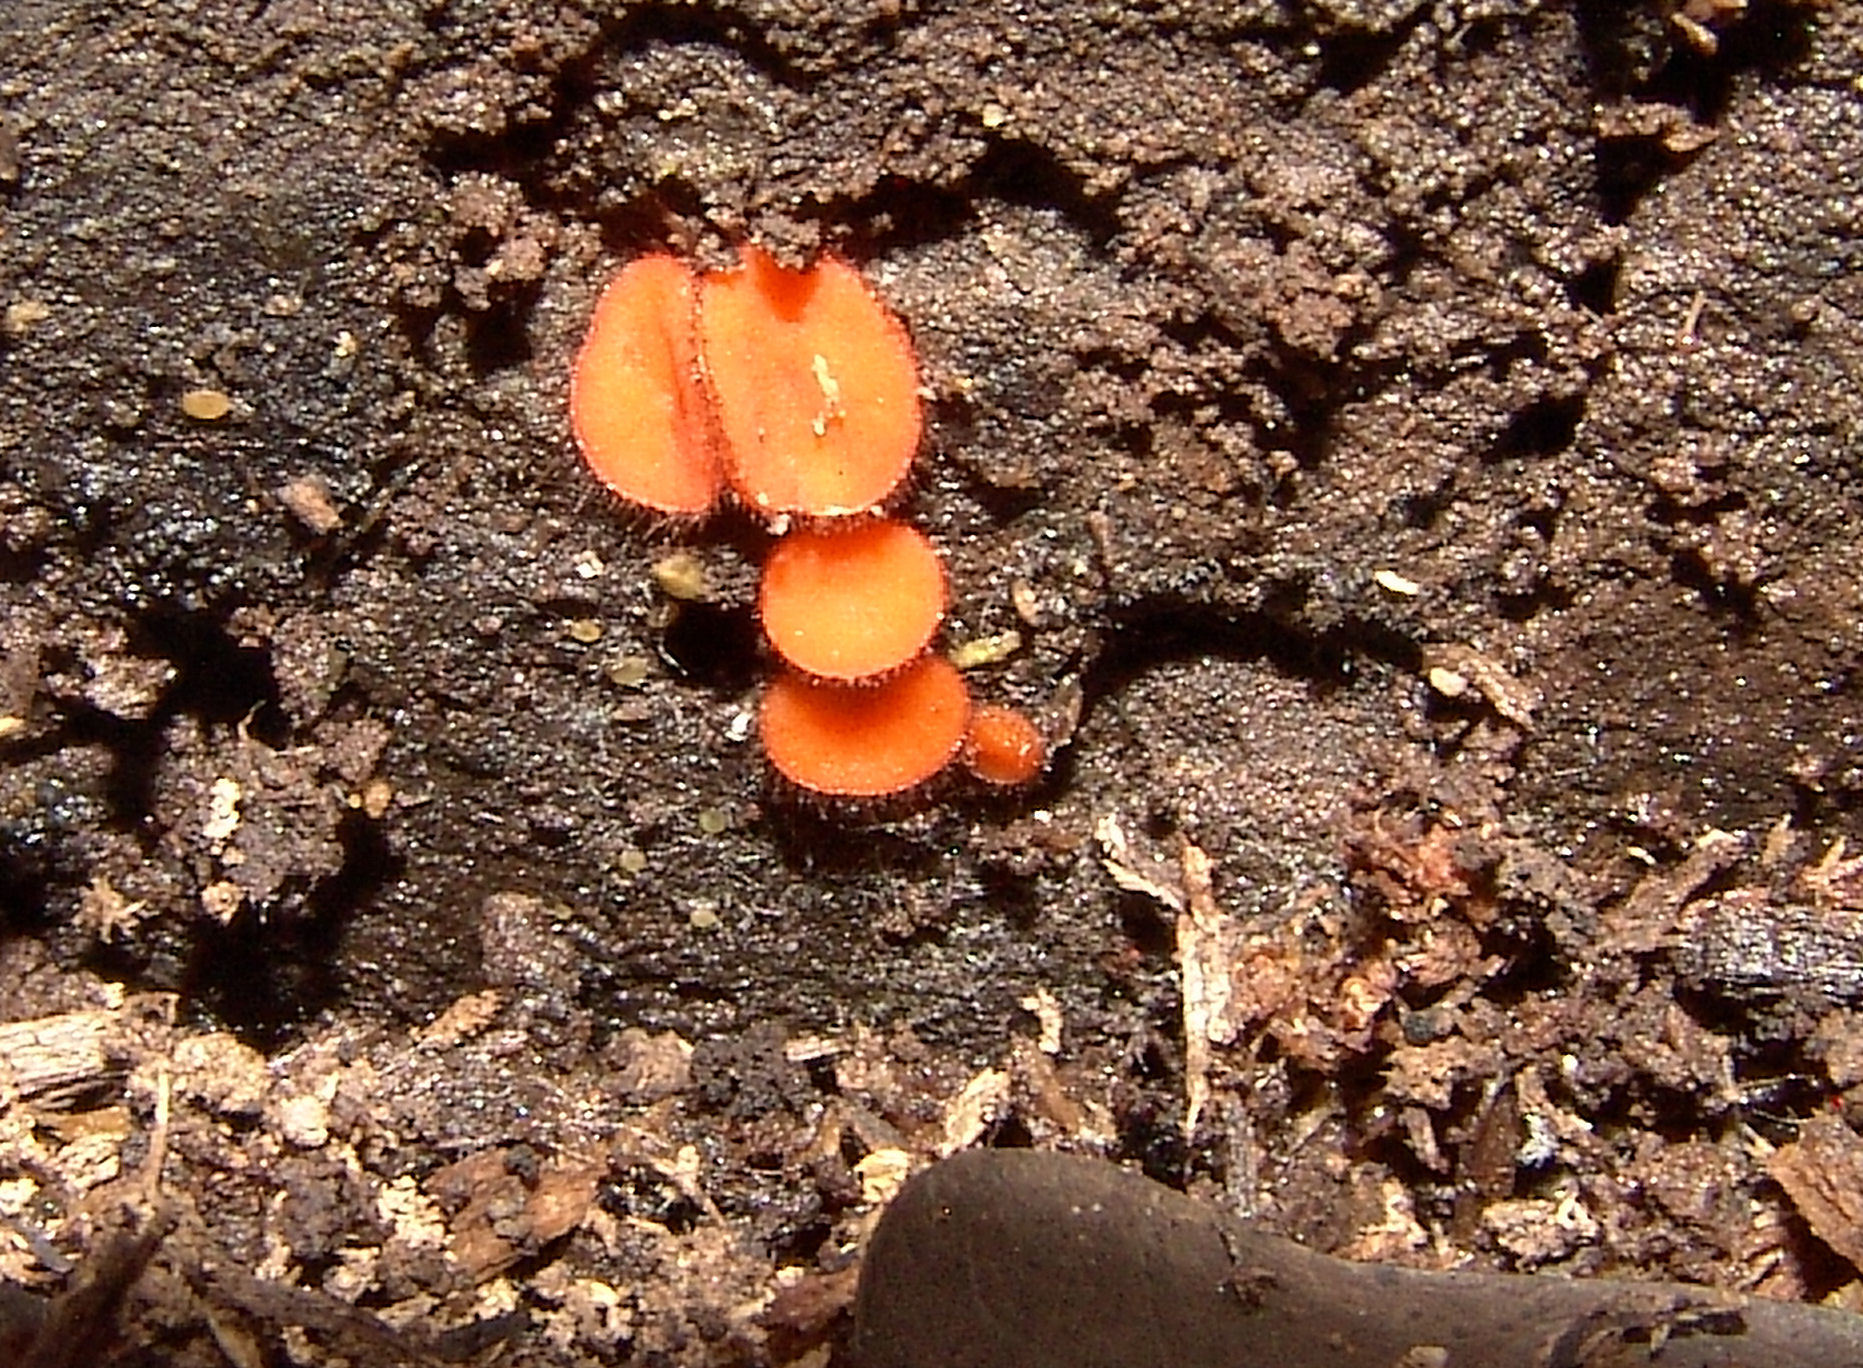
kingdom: Fungi
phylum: Ascomycota
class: Pezizomycetes
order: Pezizales
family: Pyronemataceae
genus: Scutellinia
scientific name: Scutellinia
